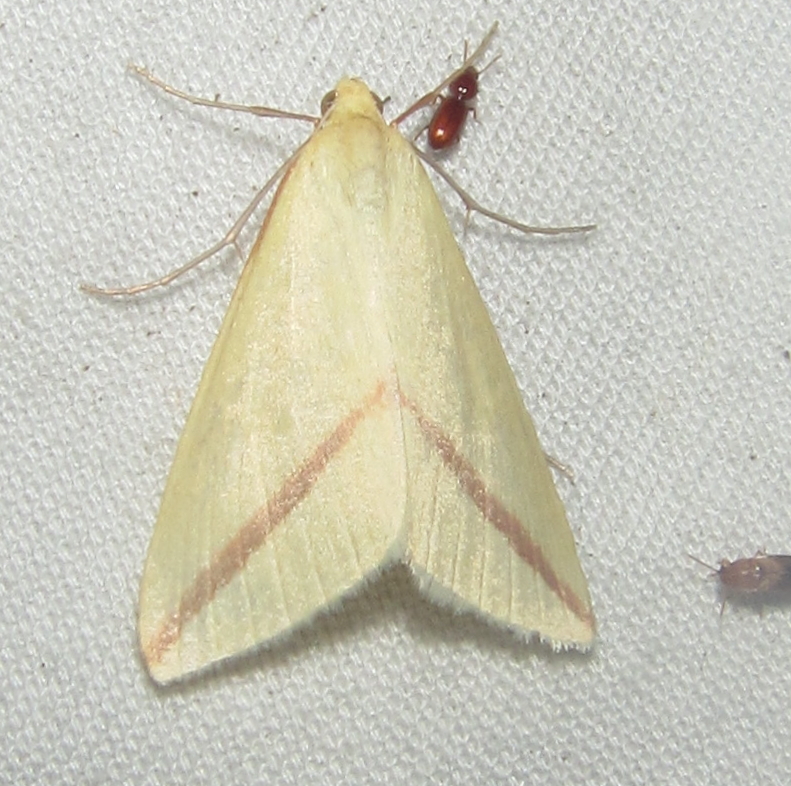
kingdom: Animalia
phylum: Arthropoda
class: Insecta
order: Lepidoptera
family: Geometridae
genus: Rhodometra
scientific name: Rhodometra sacraria
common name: Vestal
